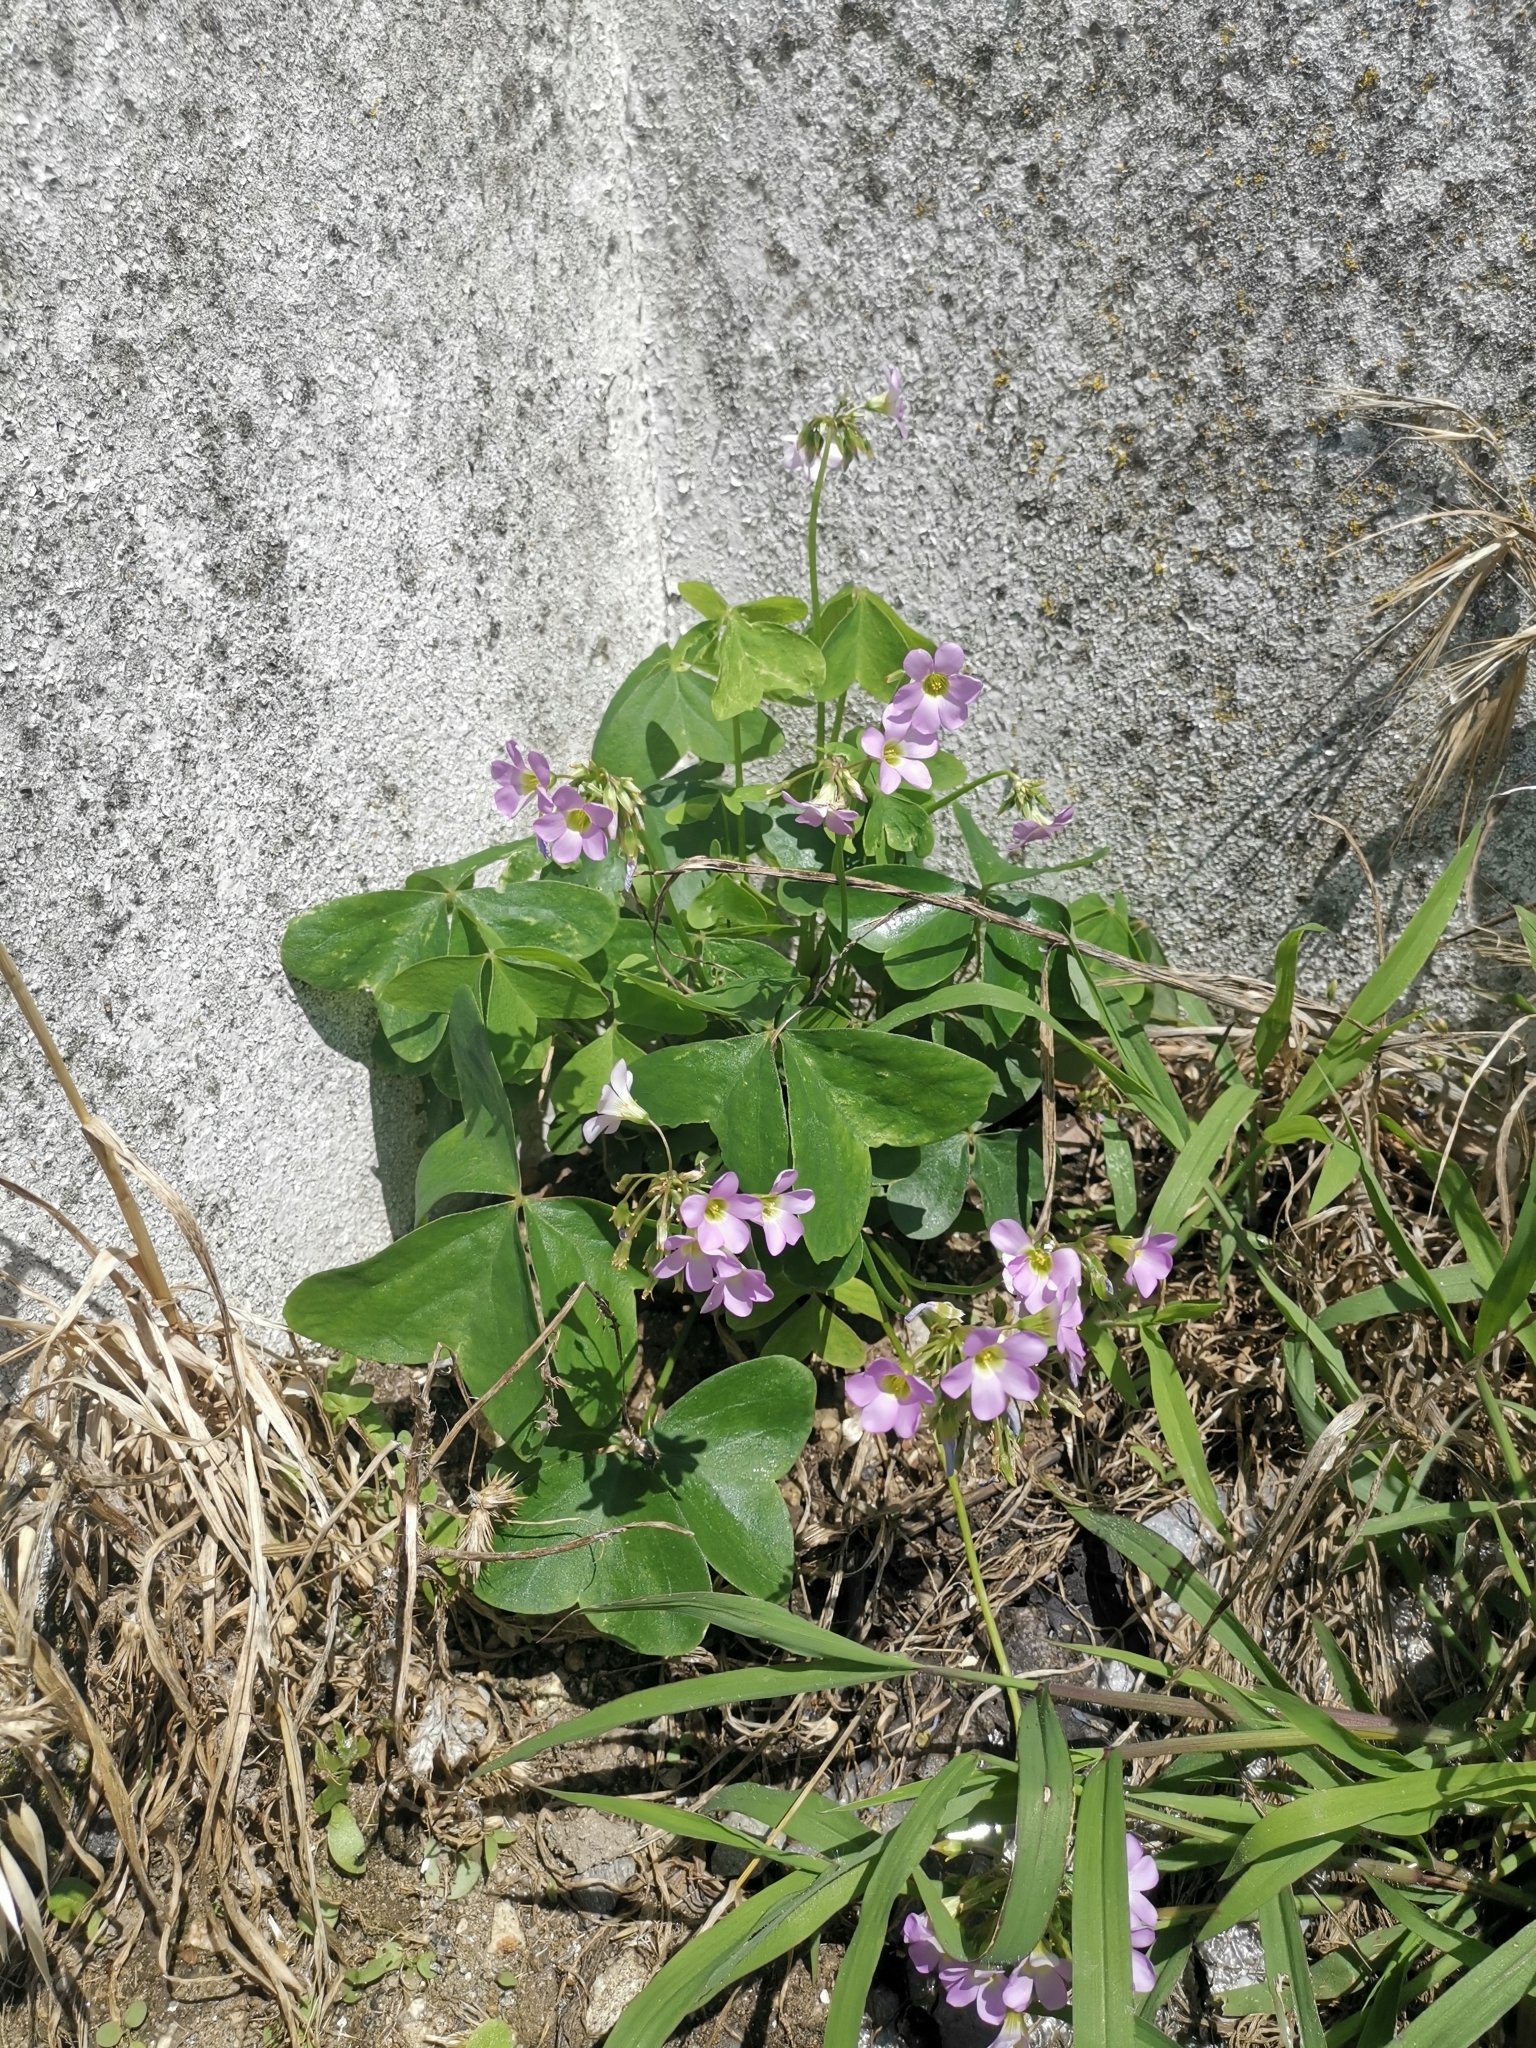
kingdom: Plantae
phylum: Tracheophyta
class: Magnoliopsida
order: Oxalidales
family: Oxalidaceae
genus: Oxalis
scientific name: Oxalis latifolia
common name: Garden pink-sorrel
